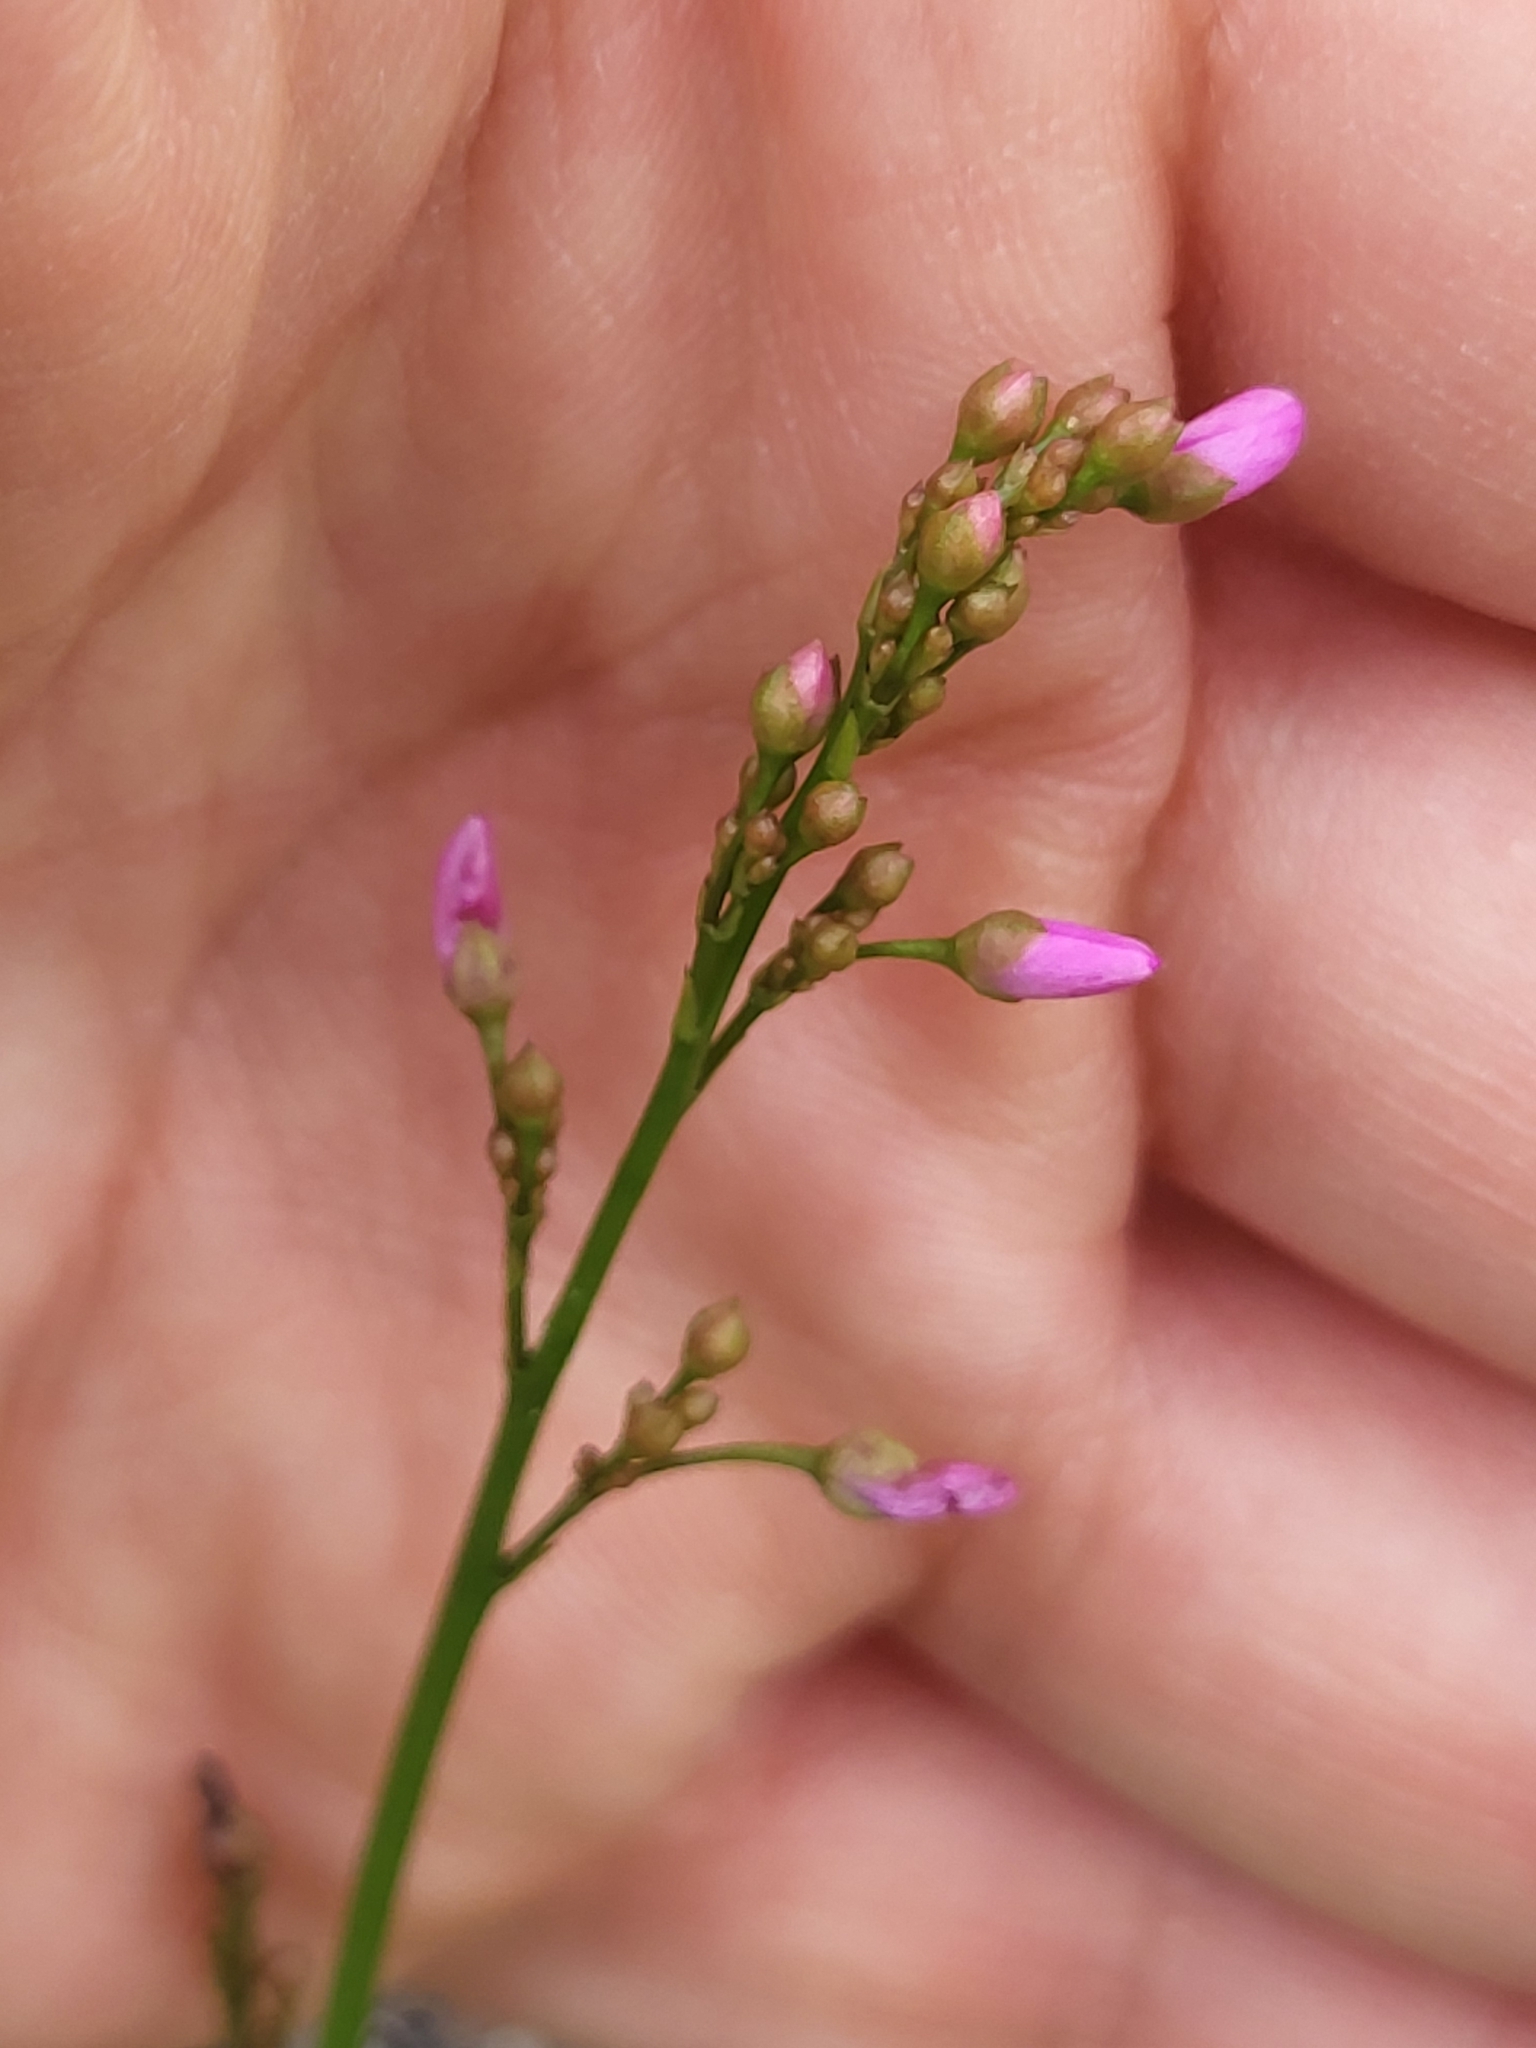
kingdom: Plantae
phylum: Tracheophyta
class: Magnoliopsida
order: Caryophyllales
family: Talinaceae
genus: Talinum
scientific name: Talinum paniculatum
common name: Jewels of opar
